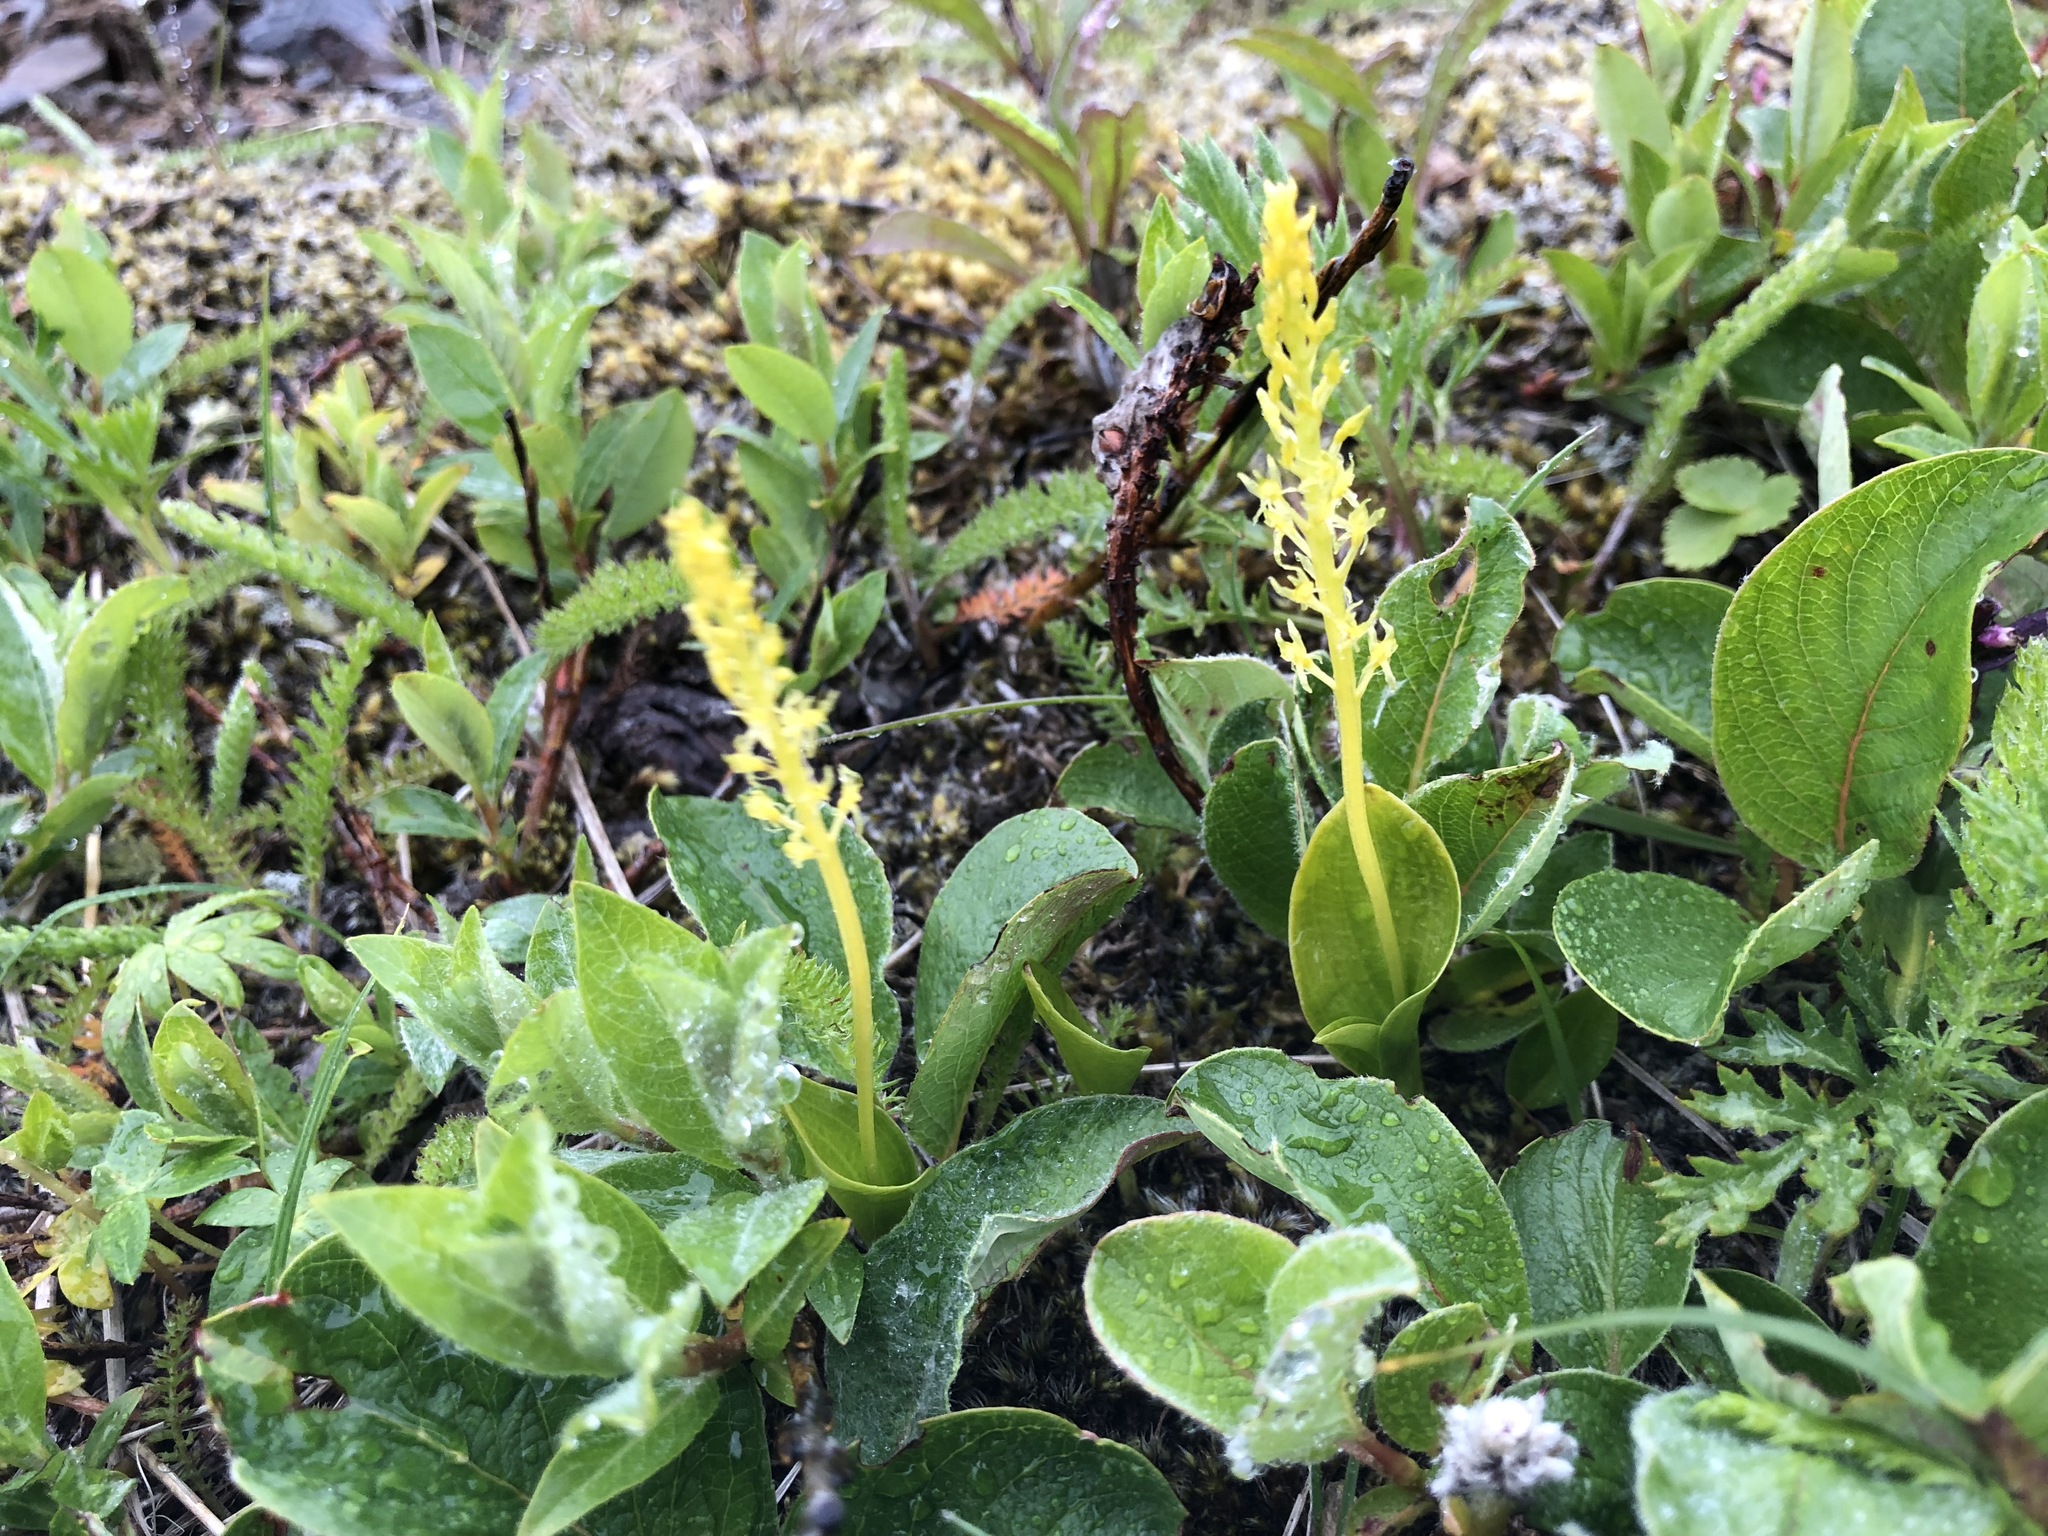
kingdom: Plantae
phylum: Tracheophyta
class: Liliopsida
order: Asparagales
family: Orchidaceae
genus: Malaxis
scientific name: Malaxis monophyllos
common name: White adder's-mouth
